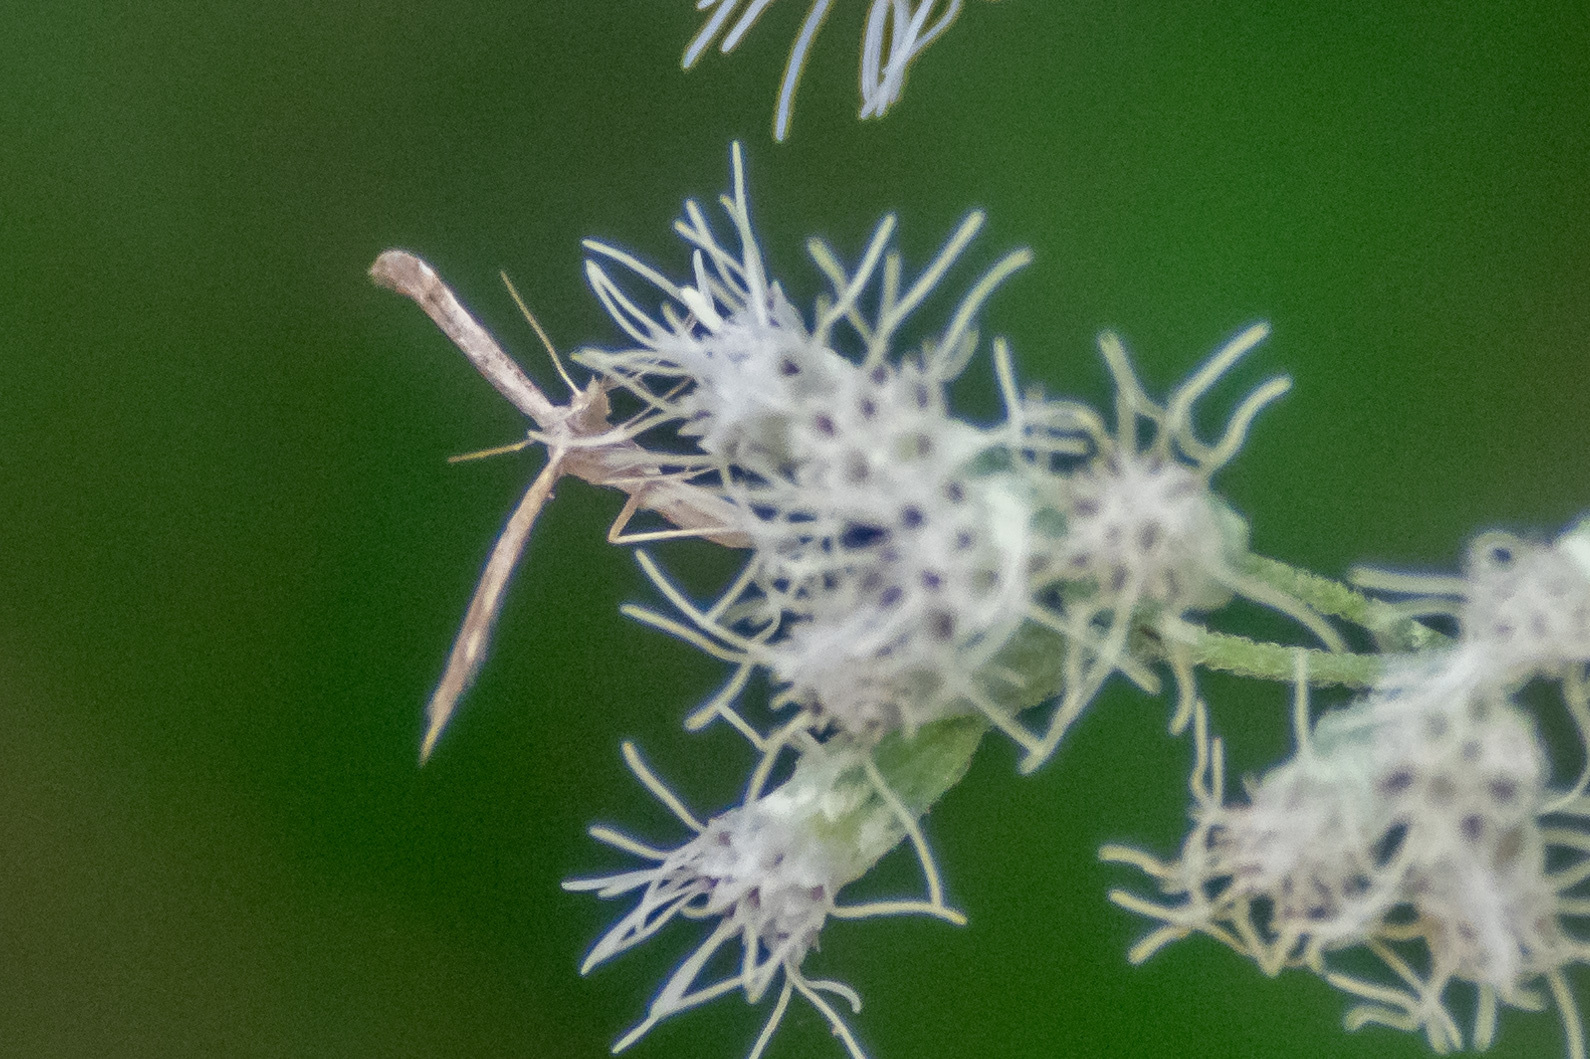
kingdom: Animalia
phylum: Arthropoda
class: Insecta
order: Lepidoptera
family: Pterophoridae
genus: Lioptilodes
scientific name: Lioptilodes albistriolatus
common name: Moth
